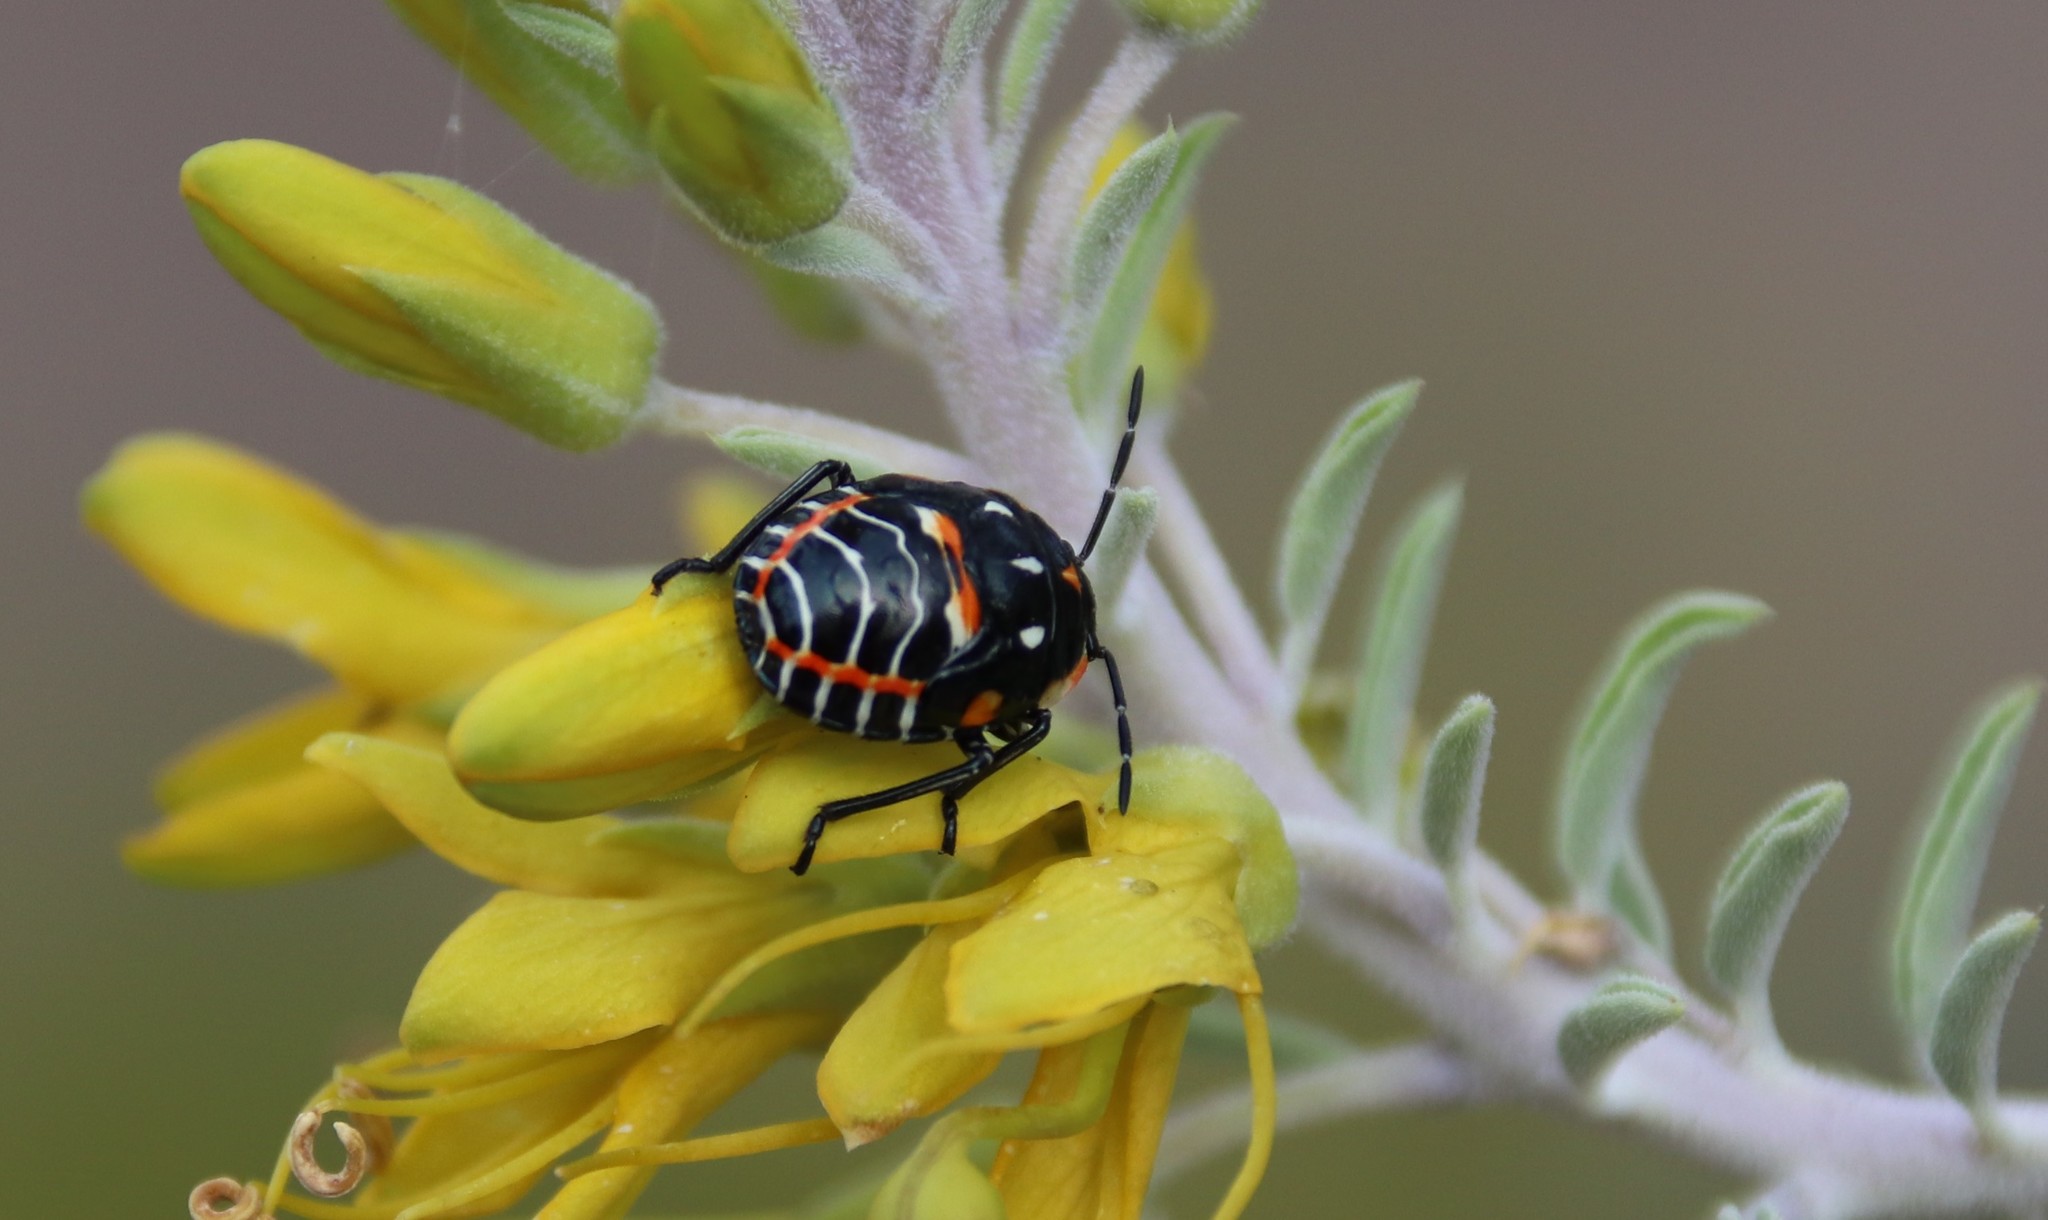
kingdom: Animalia
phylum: Arthropoda
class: Insecta
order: Hemiptera
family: Pentatomidae
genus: Murgantia
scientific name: Murgantia histrionica
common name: Harlequin bug
